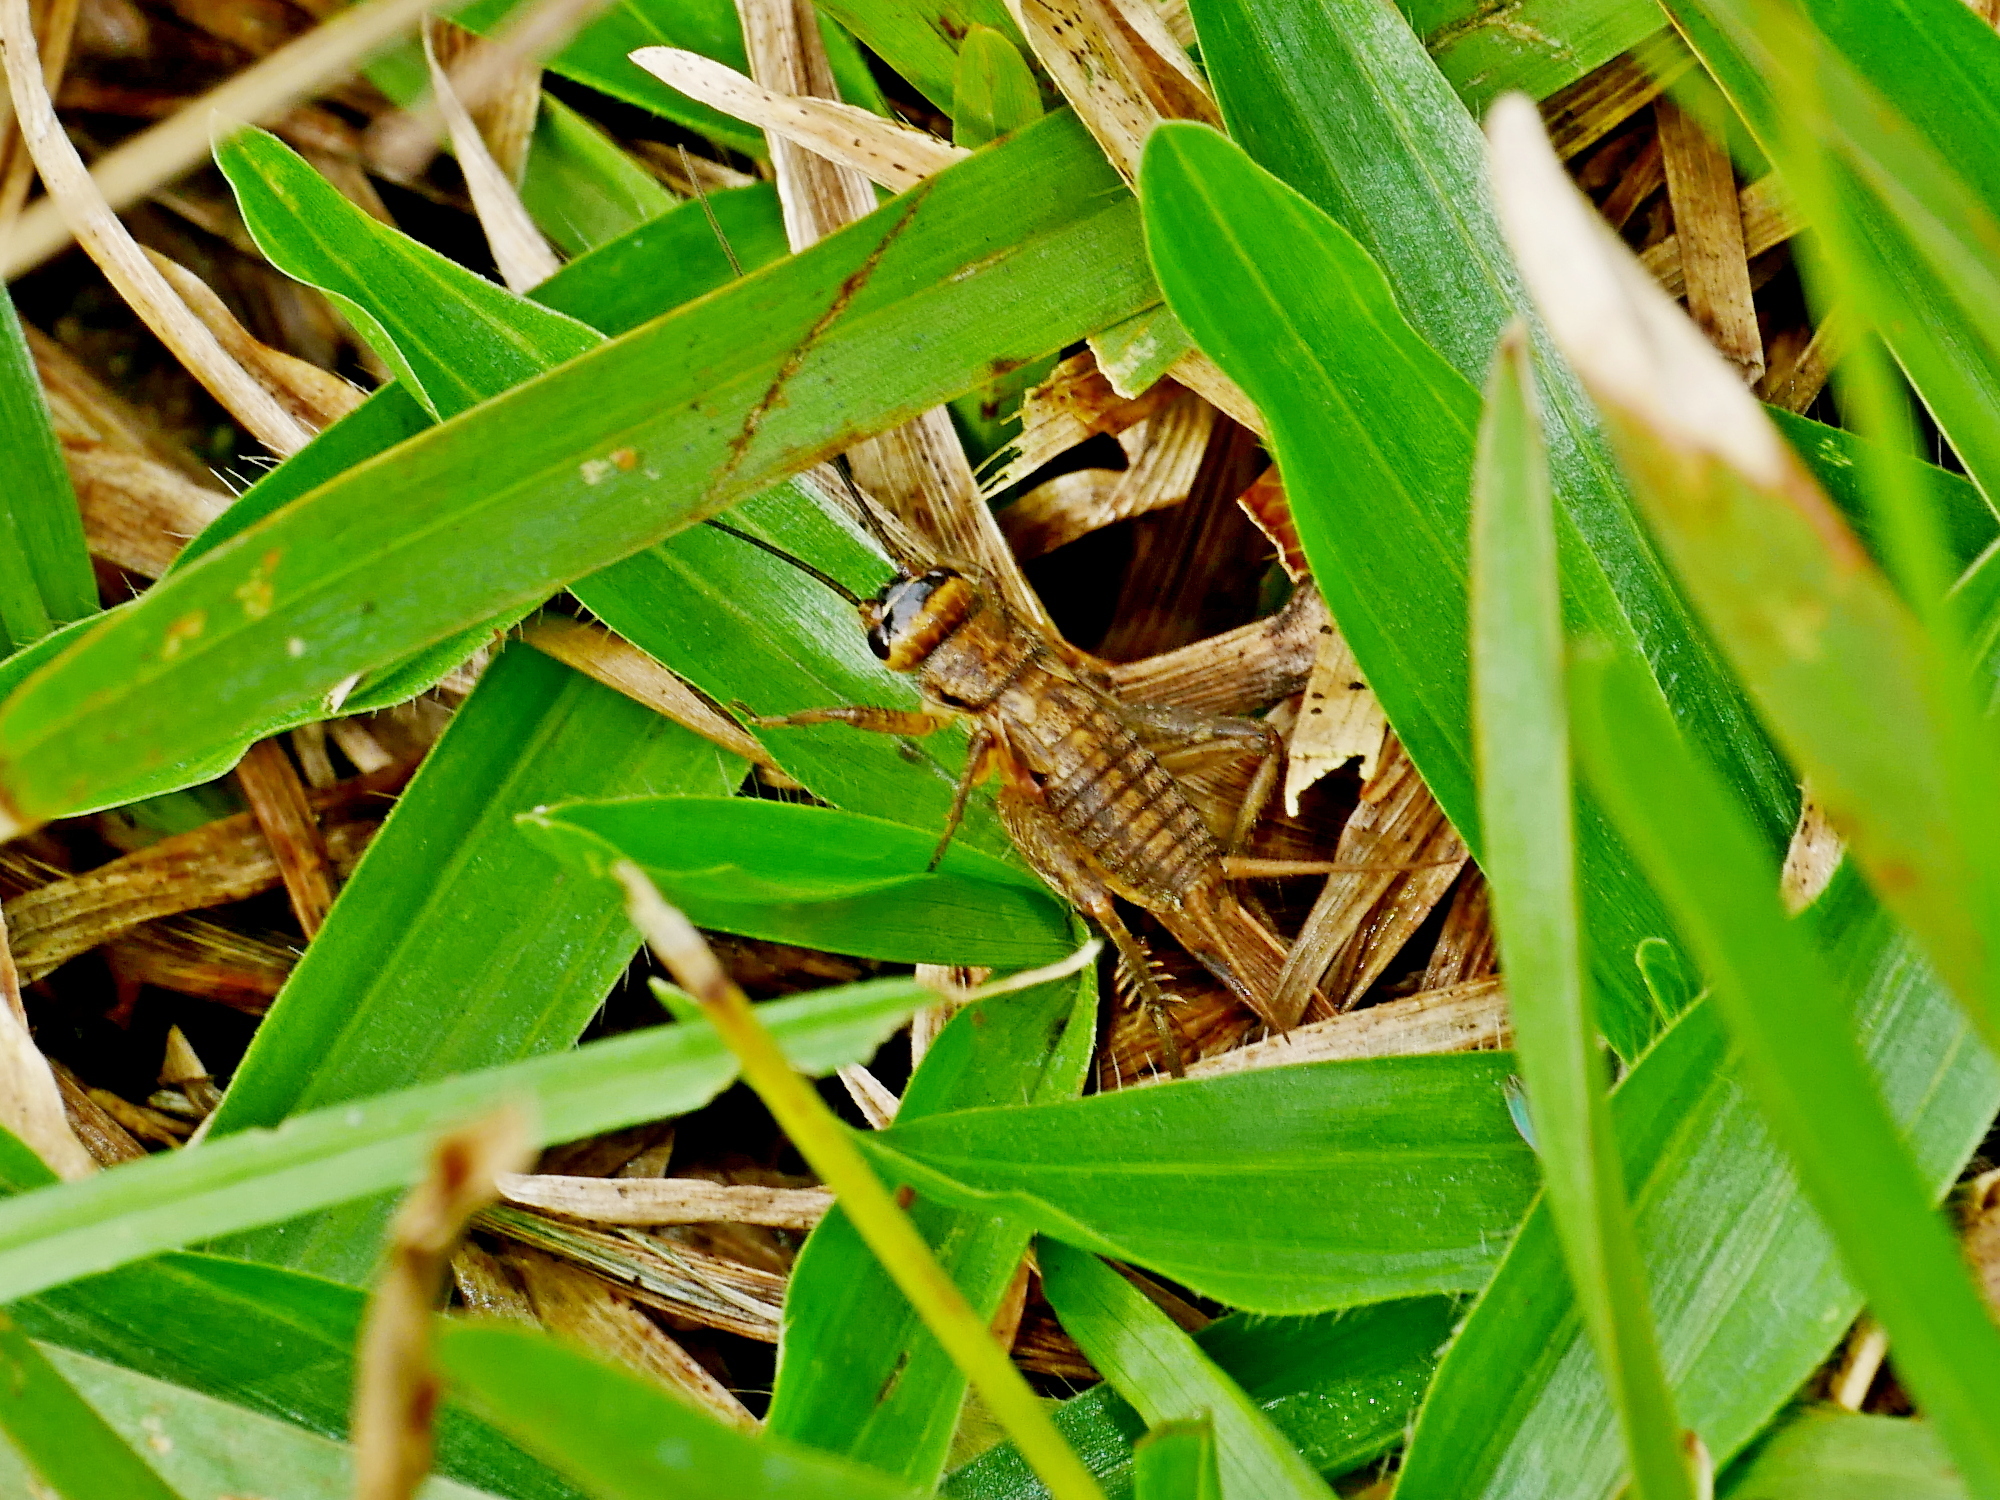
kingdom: Animalia
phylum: Arthropoda
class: Insecta
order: Orthoptera
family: Gryllidae
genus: Modicogryllus
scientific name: Modicogryllus consobrinus
